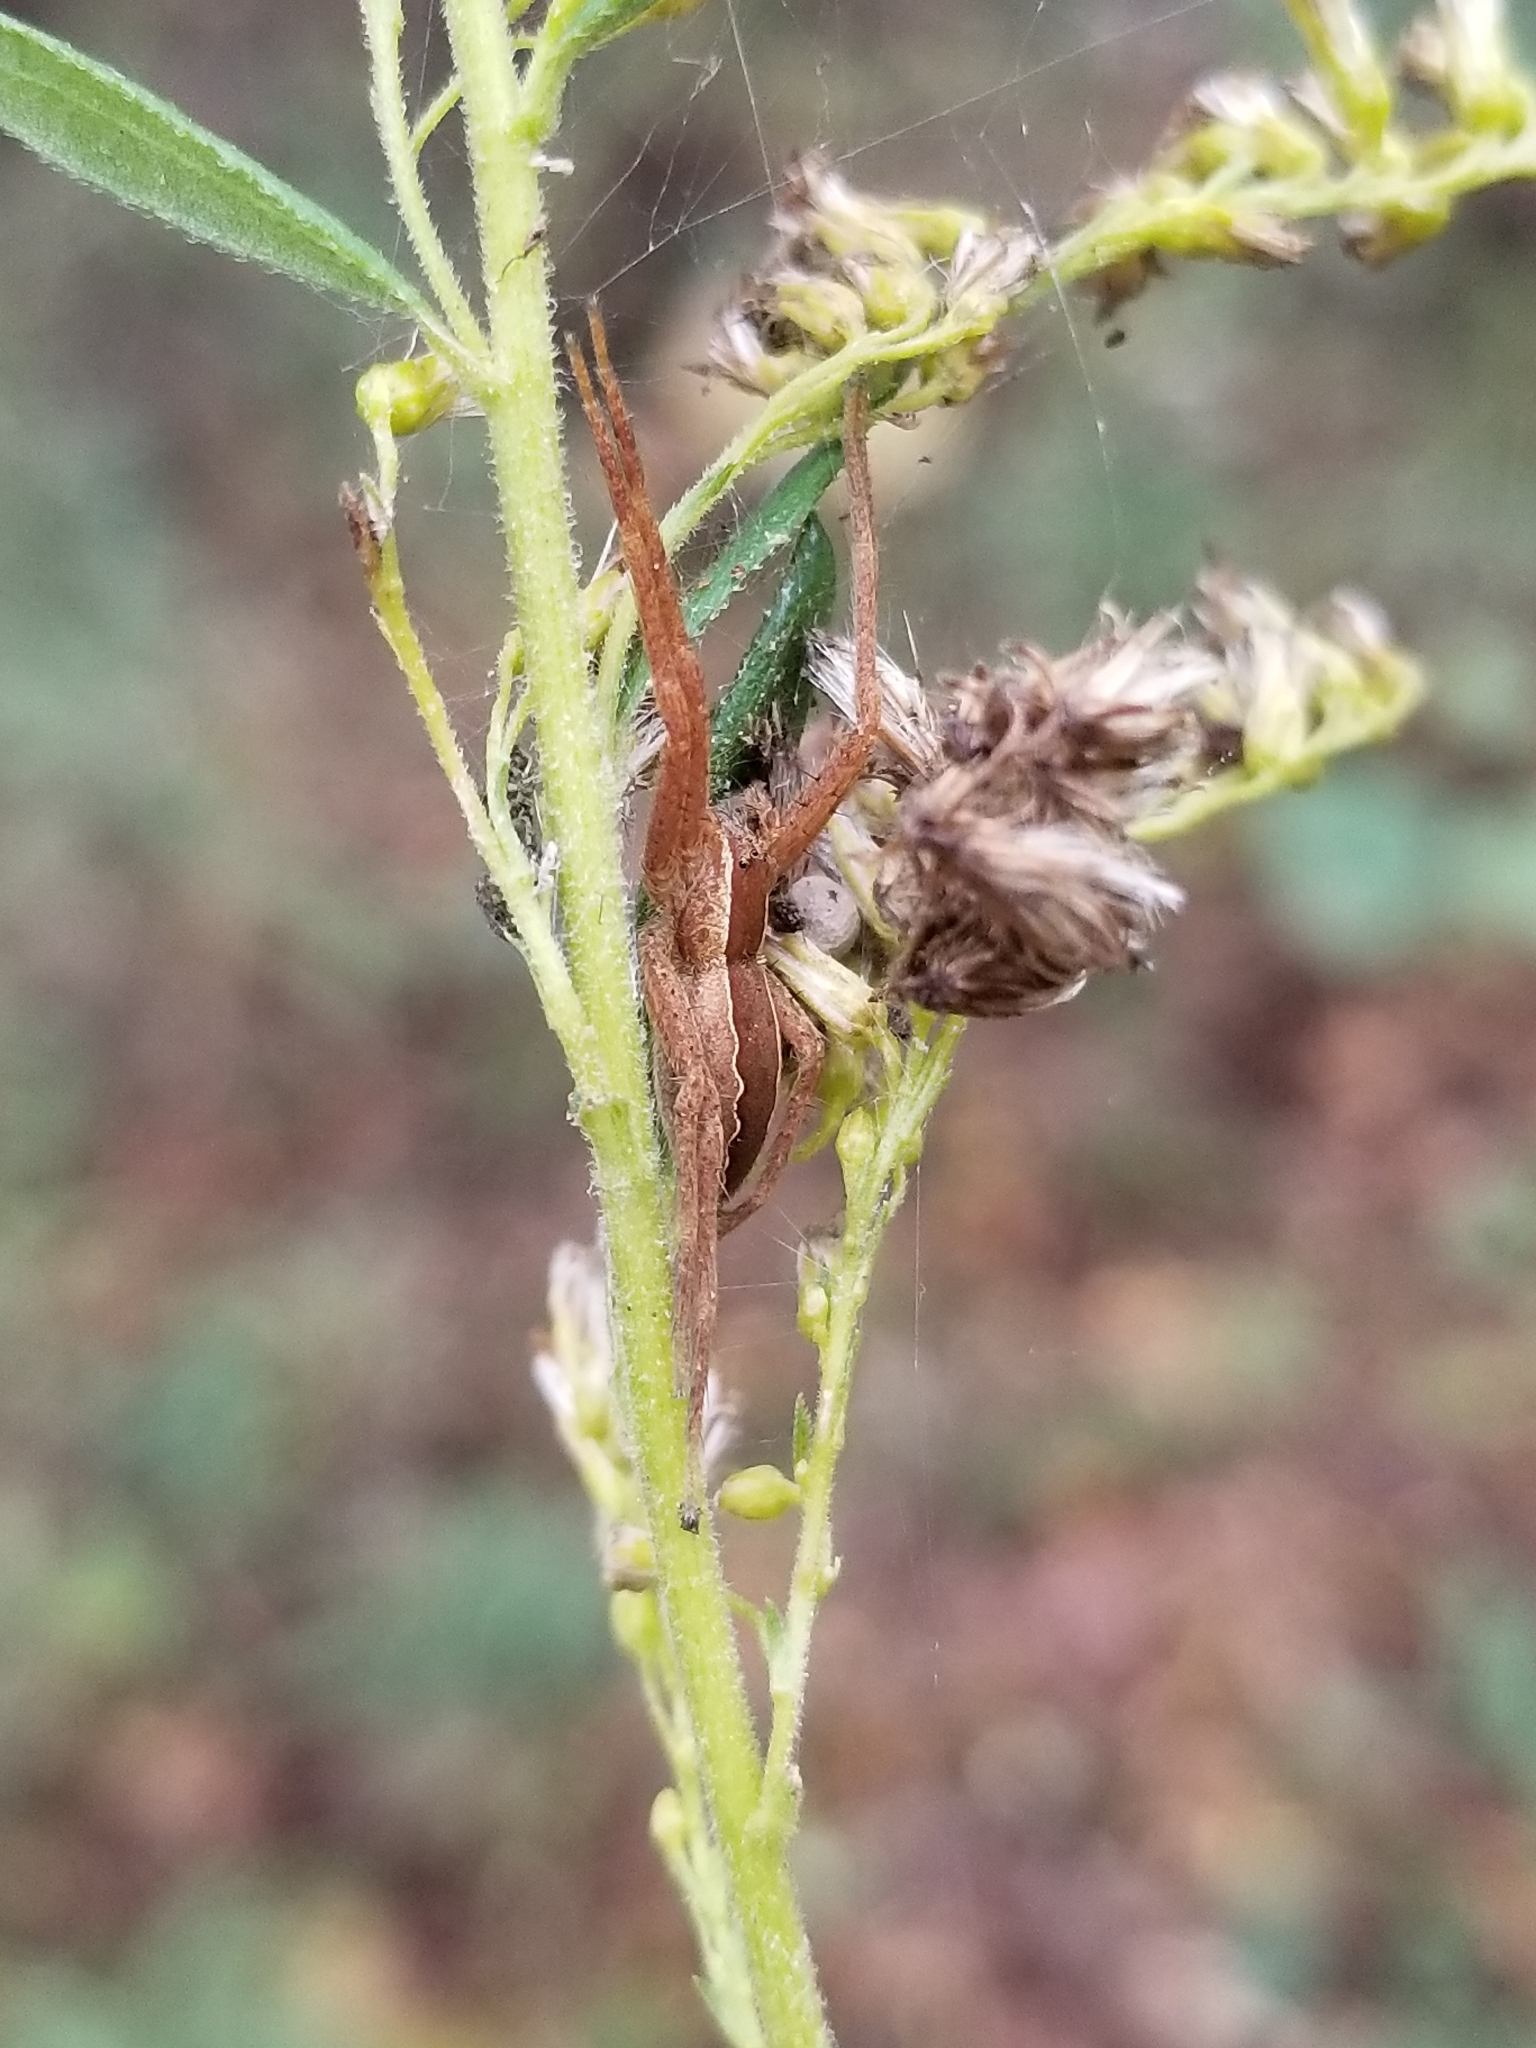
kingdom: Animalia
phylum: Arthropoda
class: Arachnida
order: Araneae
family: Pisauridae
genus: Pisaurina
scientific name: Pisaurina mira
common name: American nursery web spider
